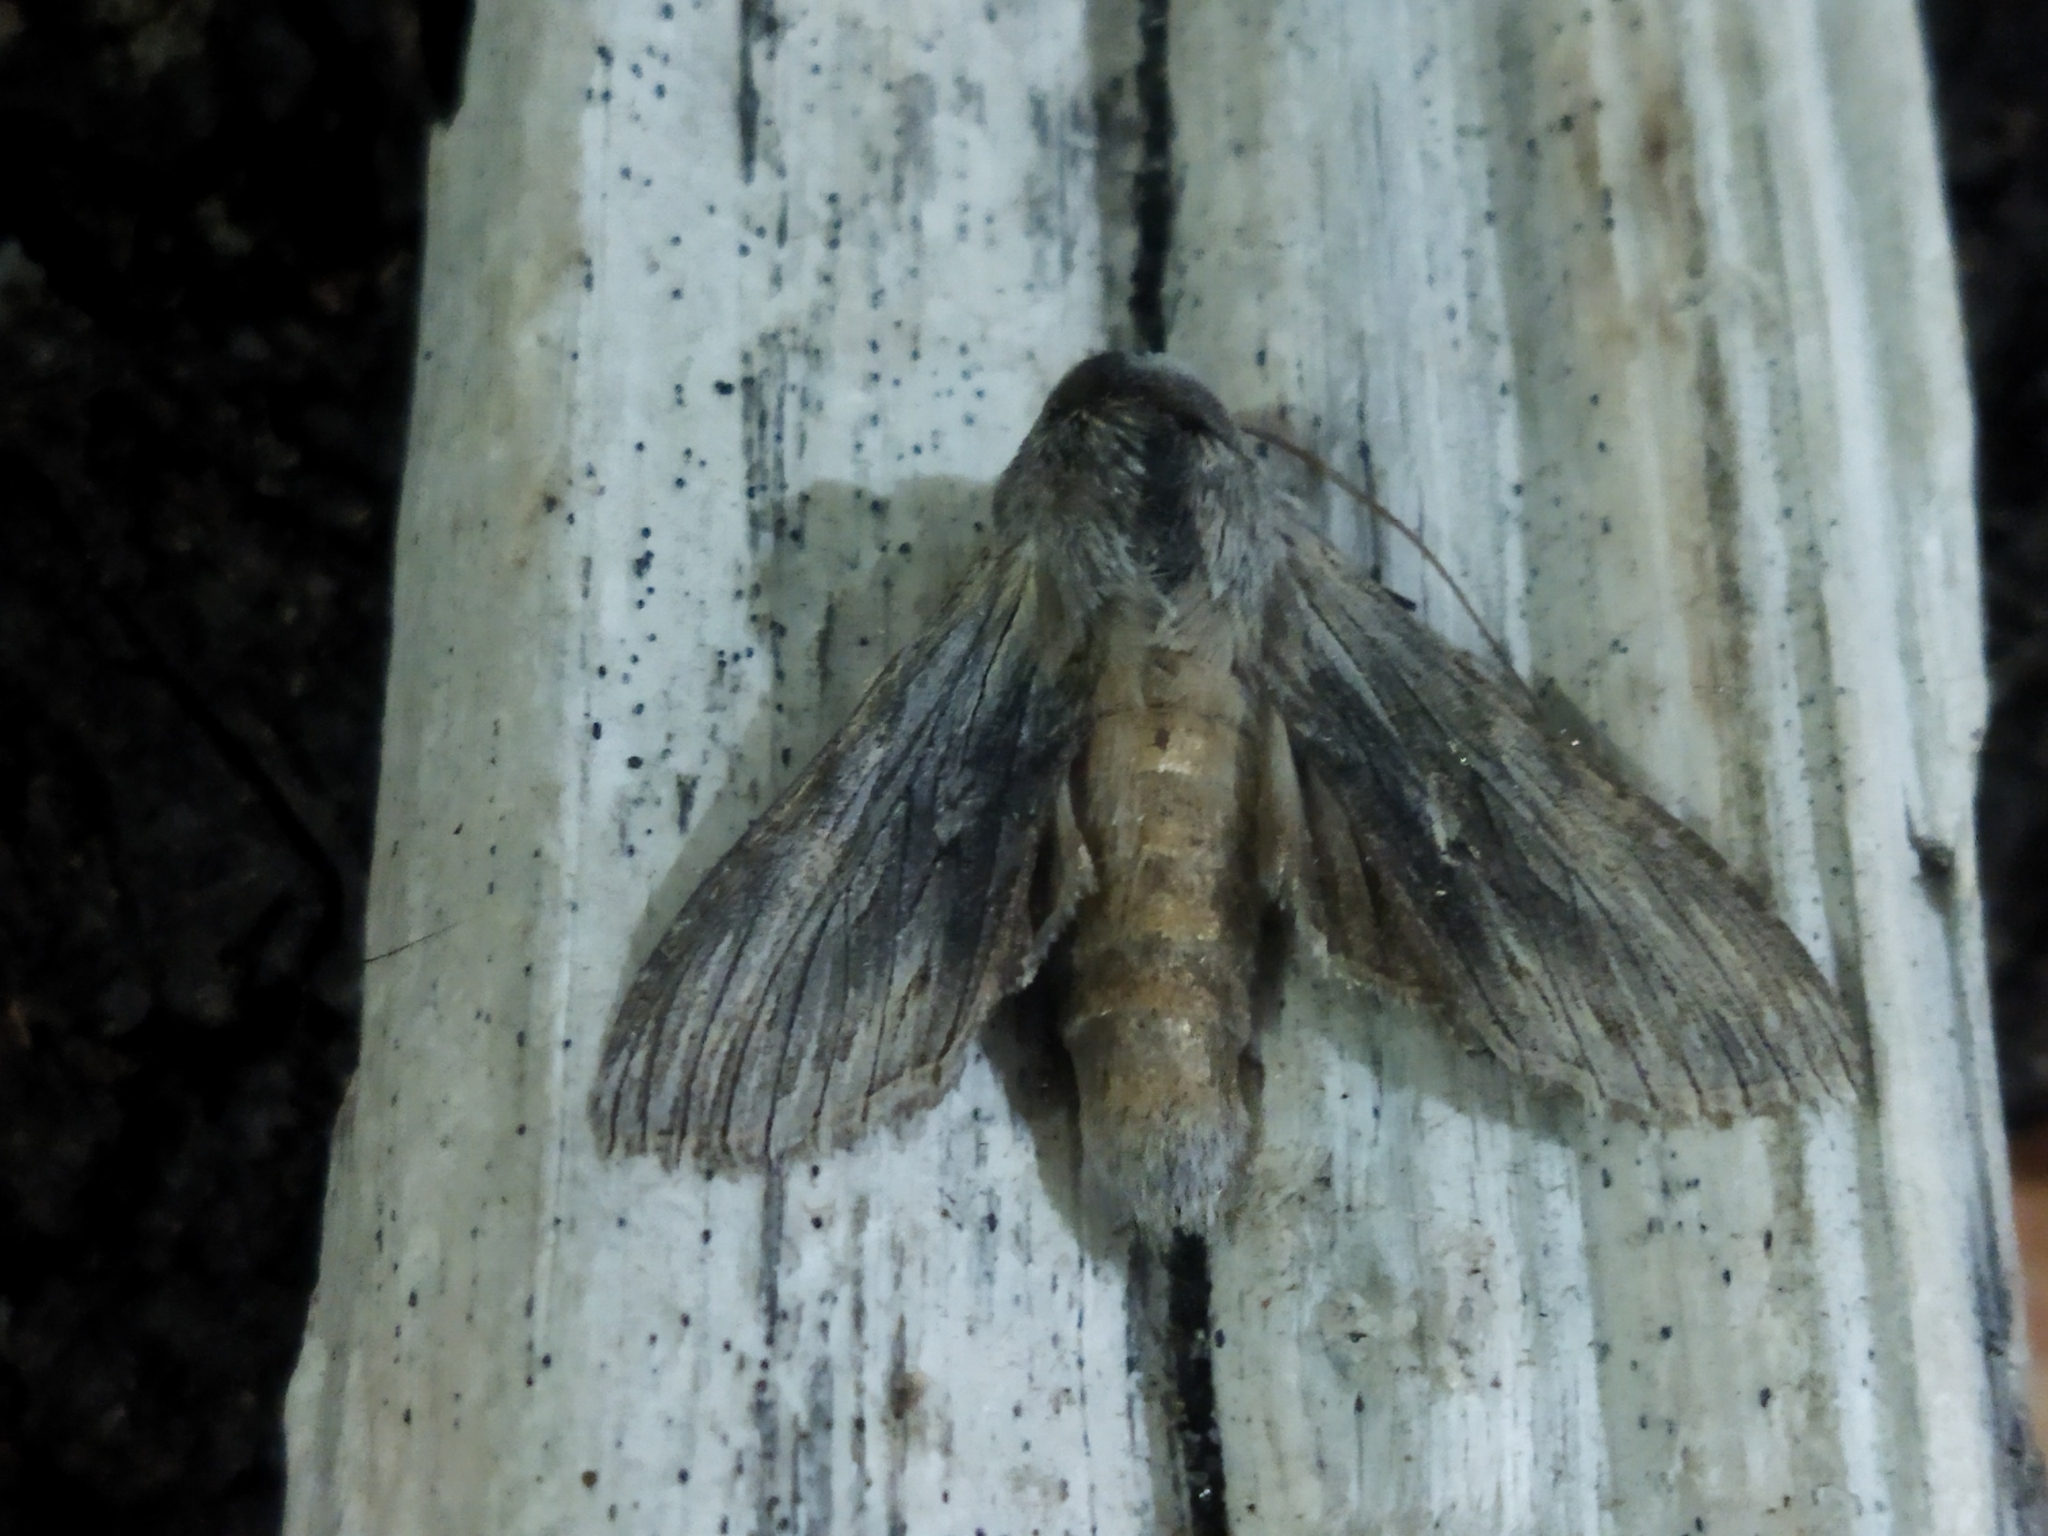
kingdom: Animalia
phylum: Arthropoda
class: Insecta
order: Lepidoptera
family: Noctuidae
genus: Cucullia
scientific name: Cucullia chamomillae
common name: Chamomile shark
